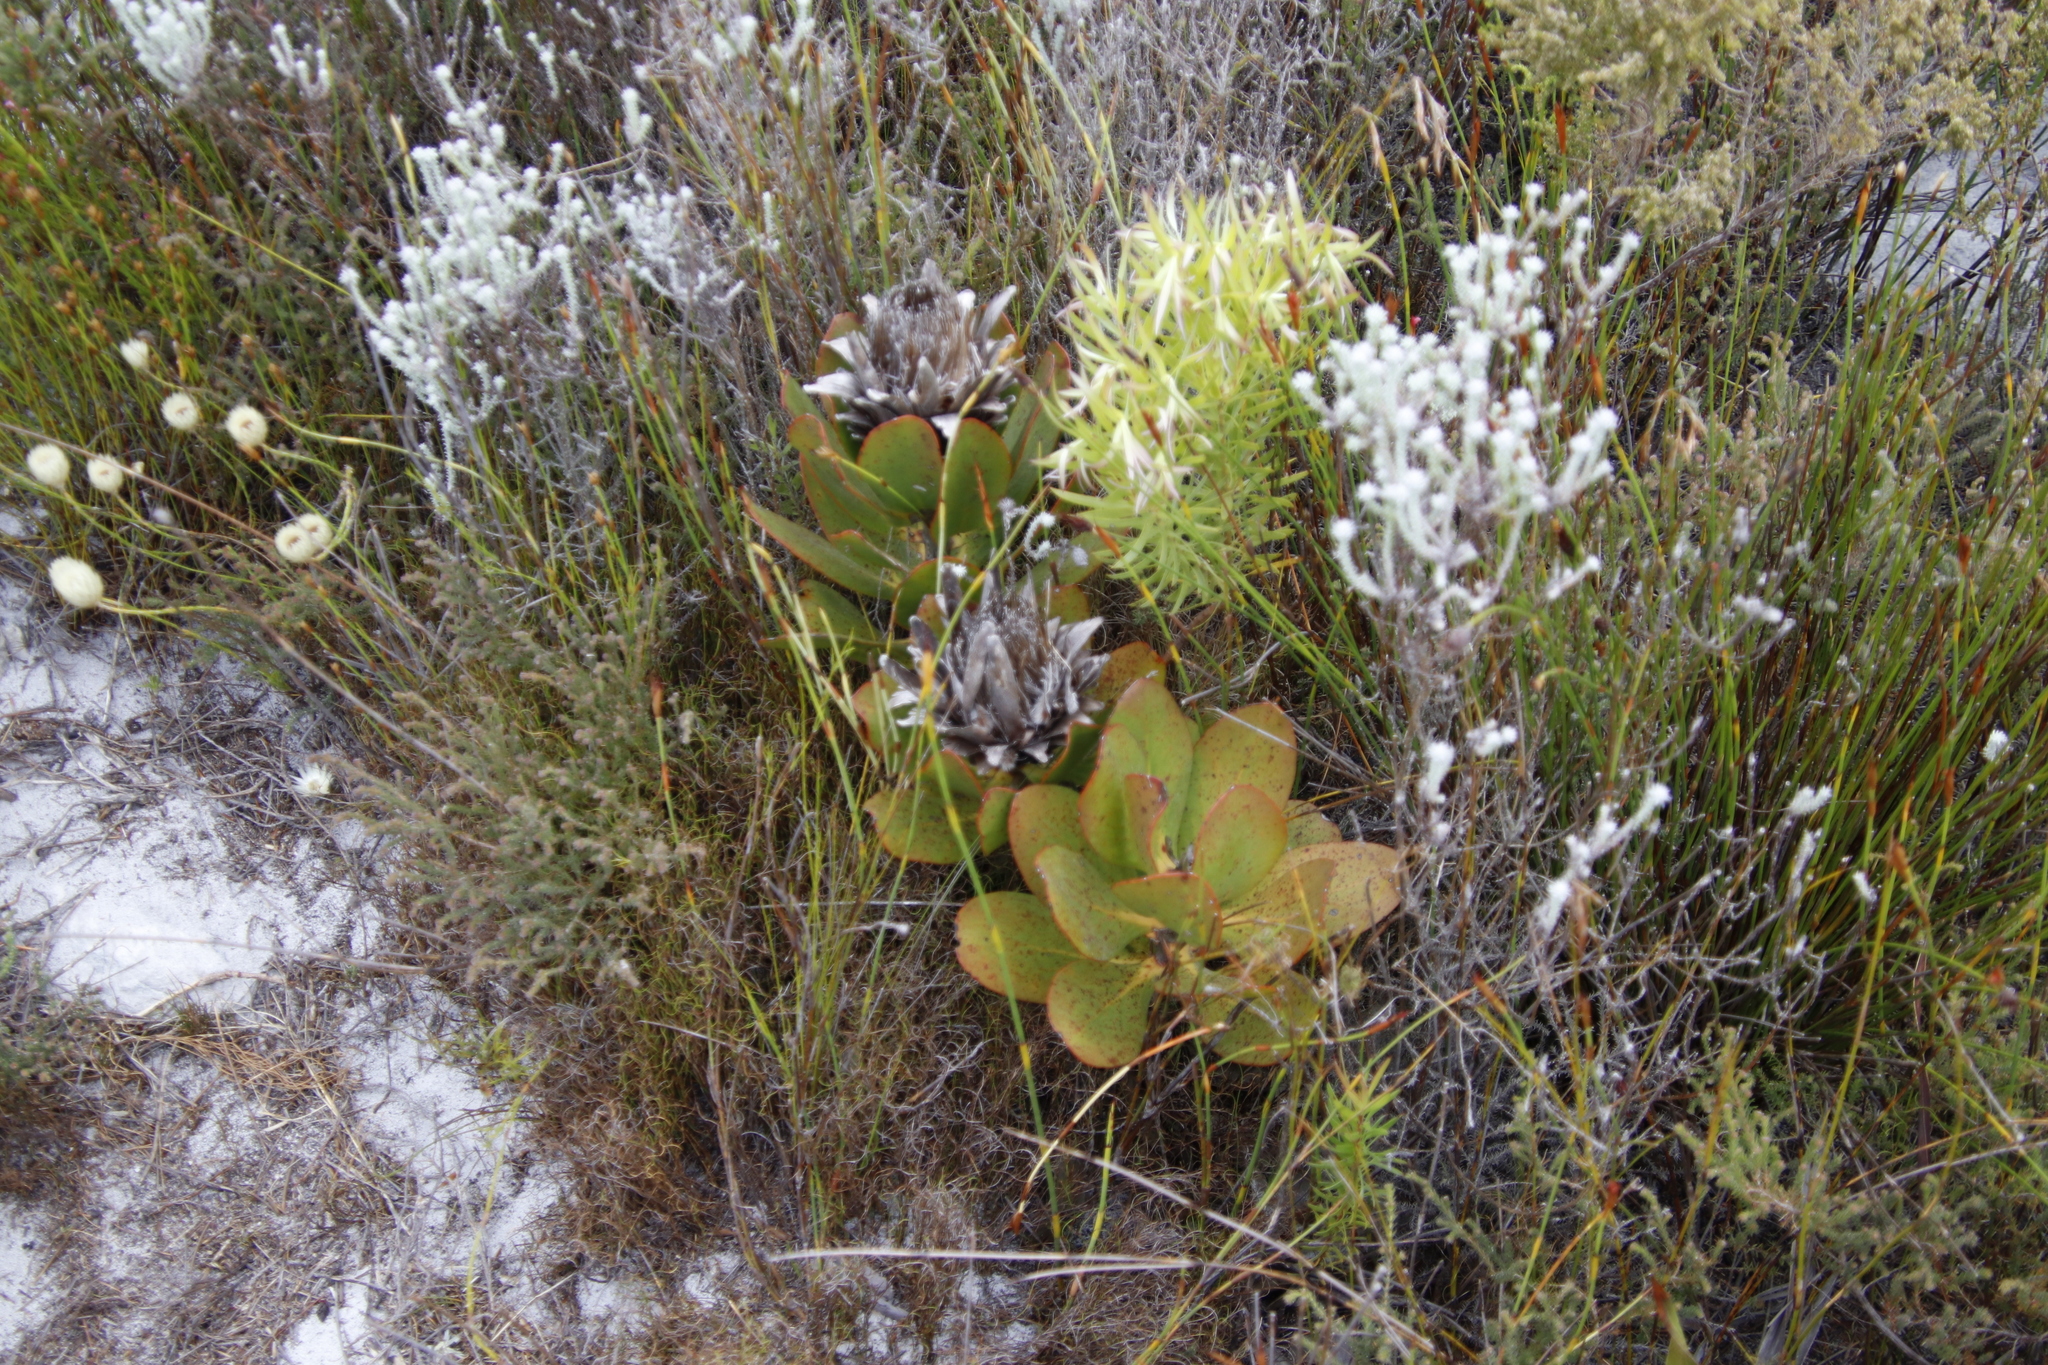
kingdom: Plantae
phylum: Tracheophyta
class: Magnoliopsida
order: Proteales
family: Proteaceae
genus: Protea
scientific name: Protea speciosa
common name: Brown-beard sugarbush
